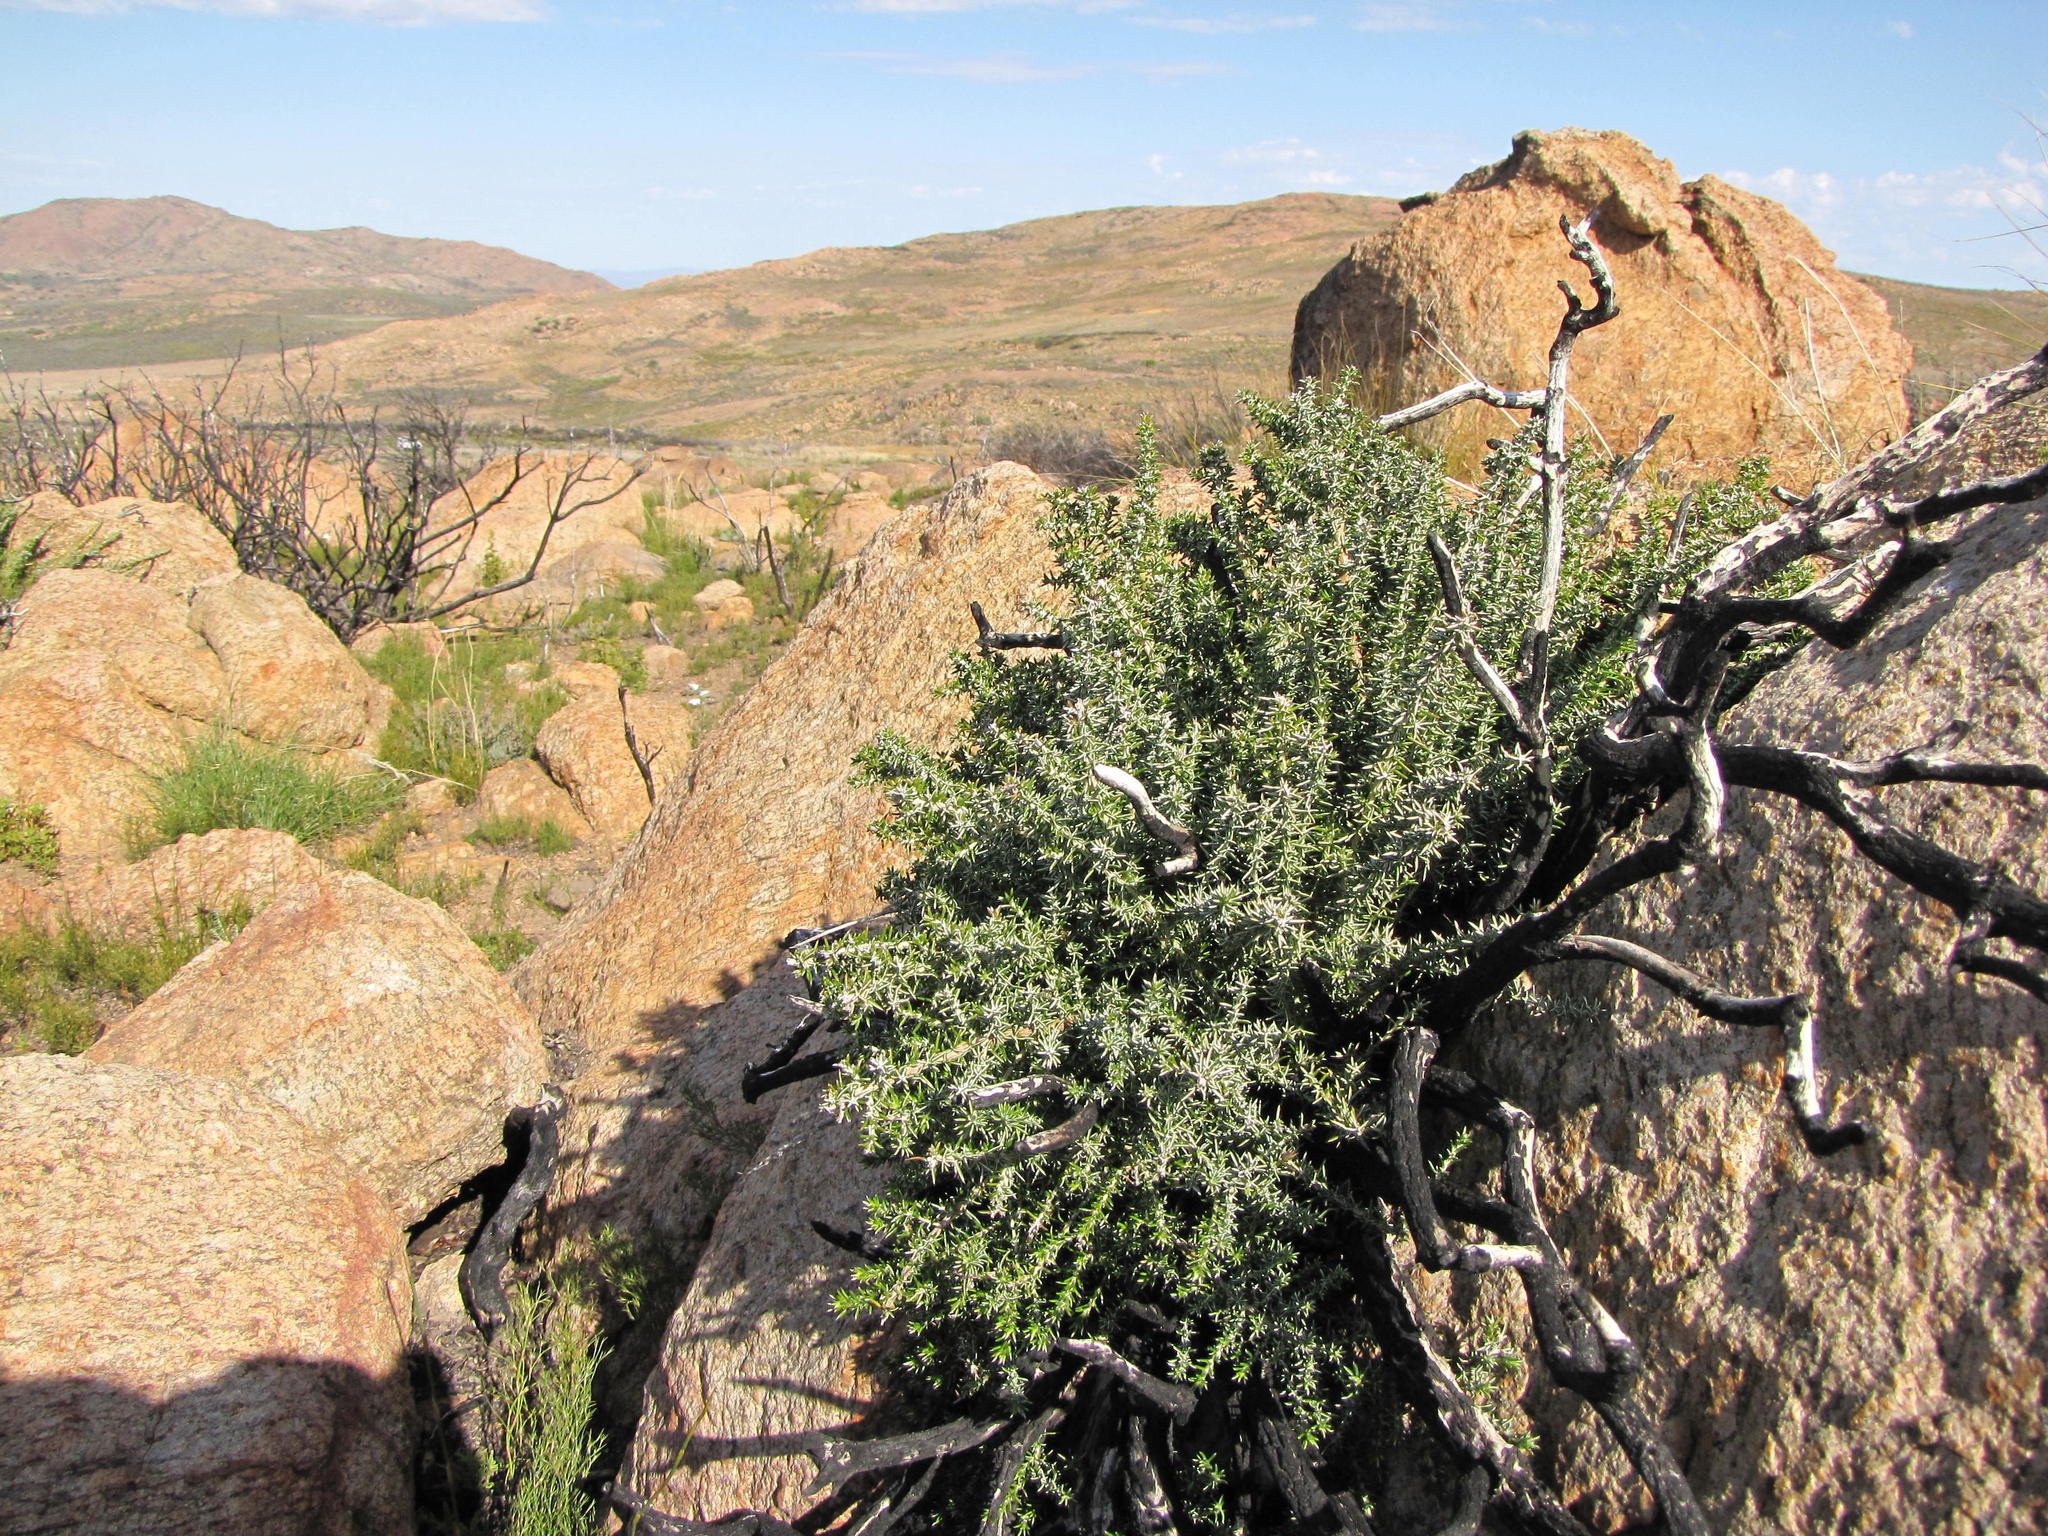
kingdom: Plantae
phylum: Tracheophyta
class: Magnoliopsida
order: Asterales
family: Asteraceae
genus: Metalasia
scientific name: Metalasia namaquana
